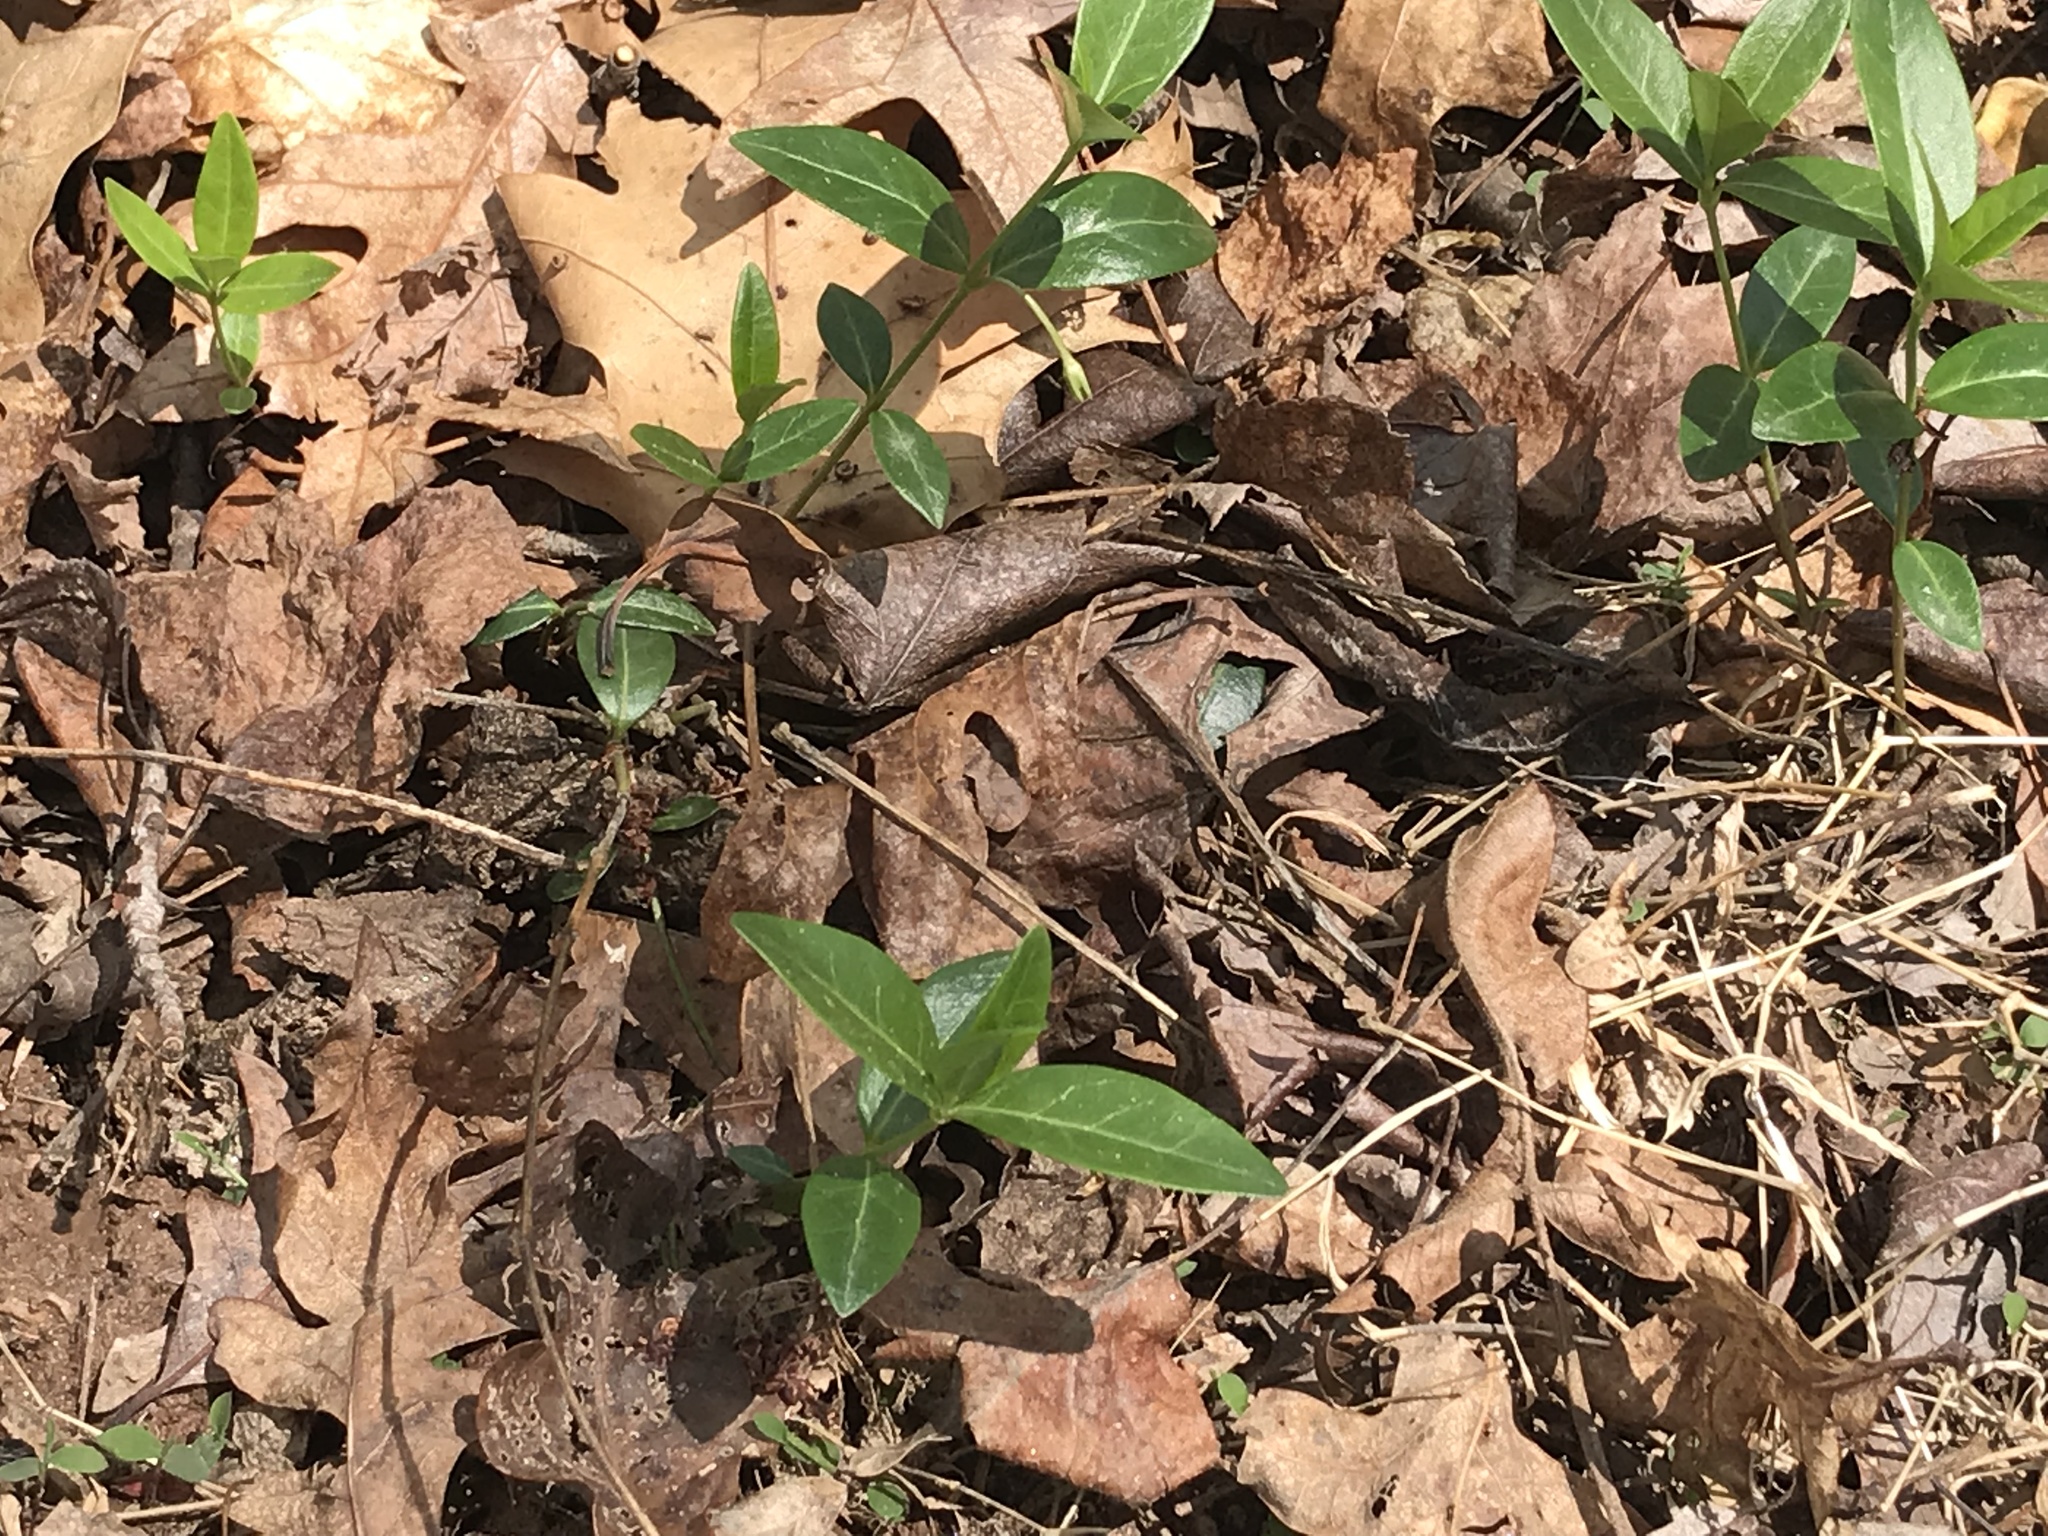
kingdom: Plantae
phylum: Tracheophyta
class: Magnoliopsida
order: Gentianales
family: Apocynaceae
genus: Vinca
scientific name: Vinca minor
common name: Lesser periwinkle
